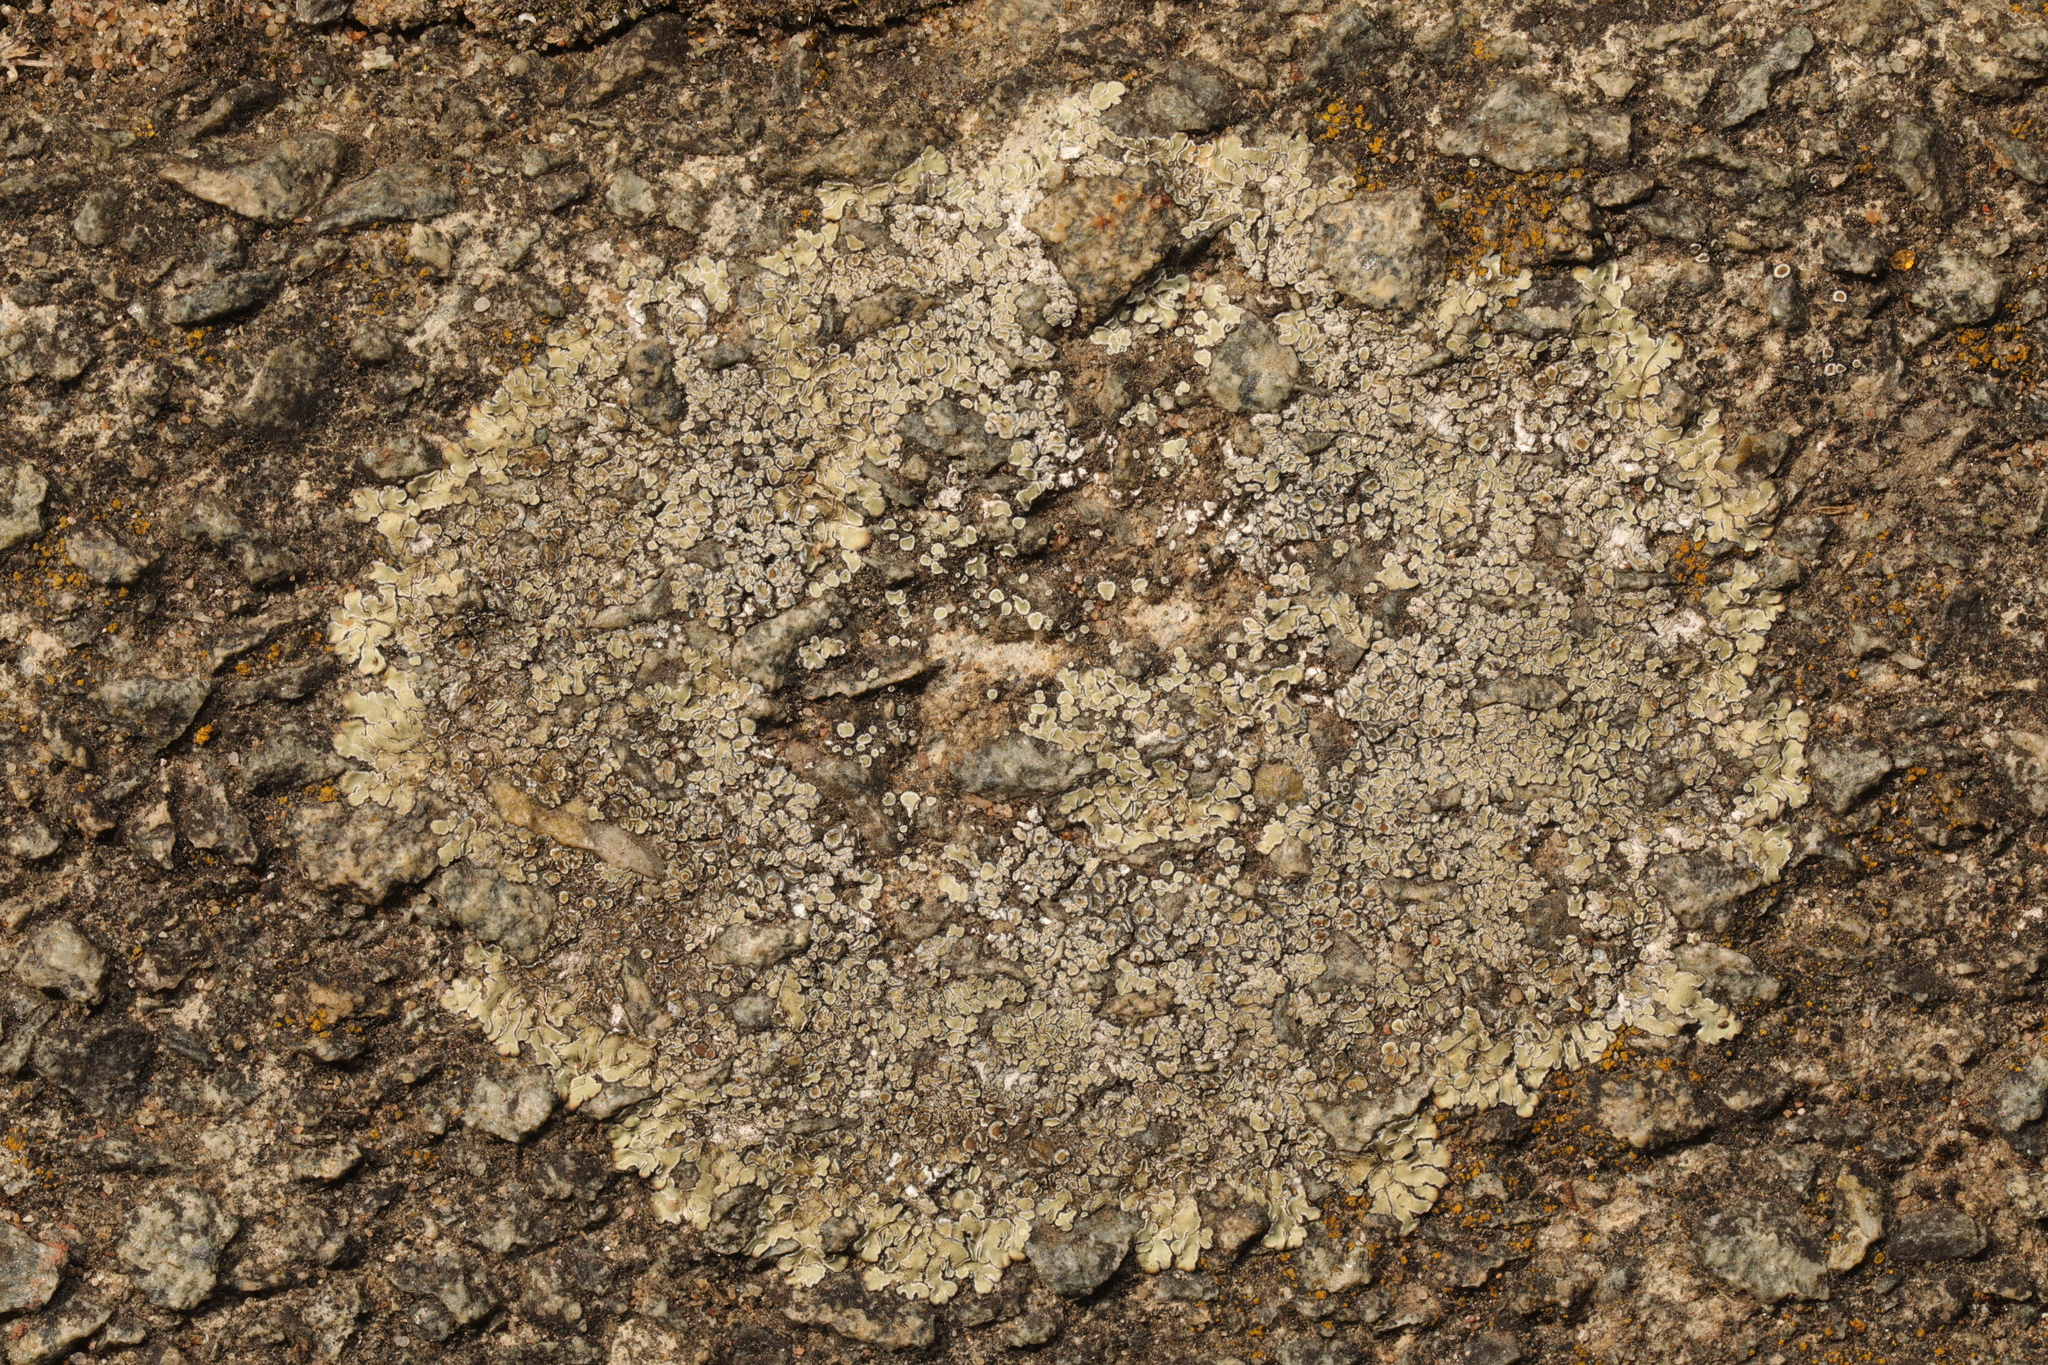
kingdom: Fungi
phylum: Ascomycota
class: Lecanoromycetes
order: Lecanorales
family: Lecanoraceae
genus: Protoparmeliopsis
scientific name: Protoparmeliopsis muralis
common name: Stonewall rim lichen
